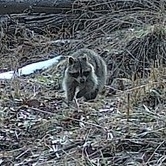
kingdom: Animalia
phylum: Chordata
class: Mammalia
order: Carnivora
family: Procyonidae
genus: Procyon
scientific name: Procyon lotor
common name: Raccoon
